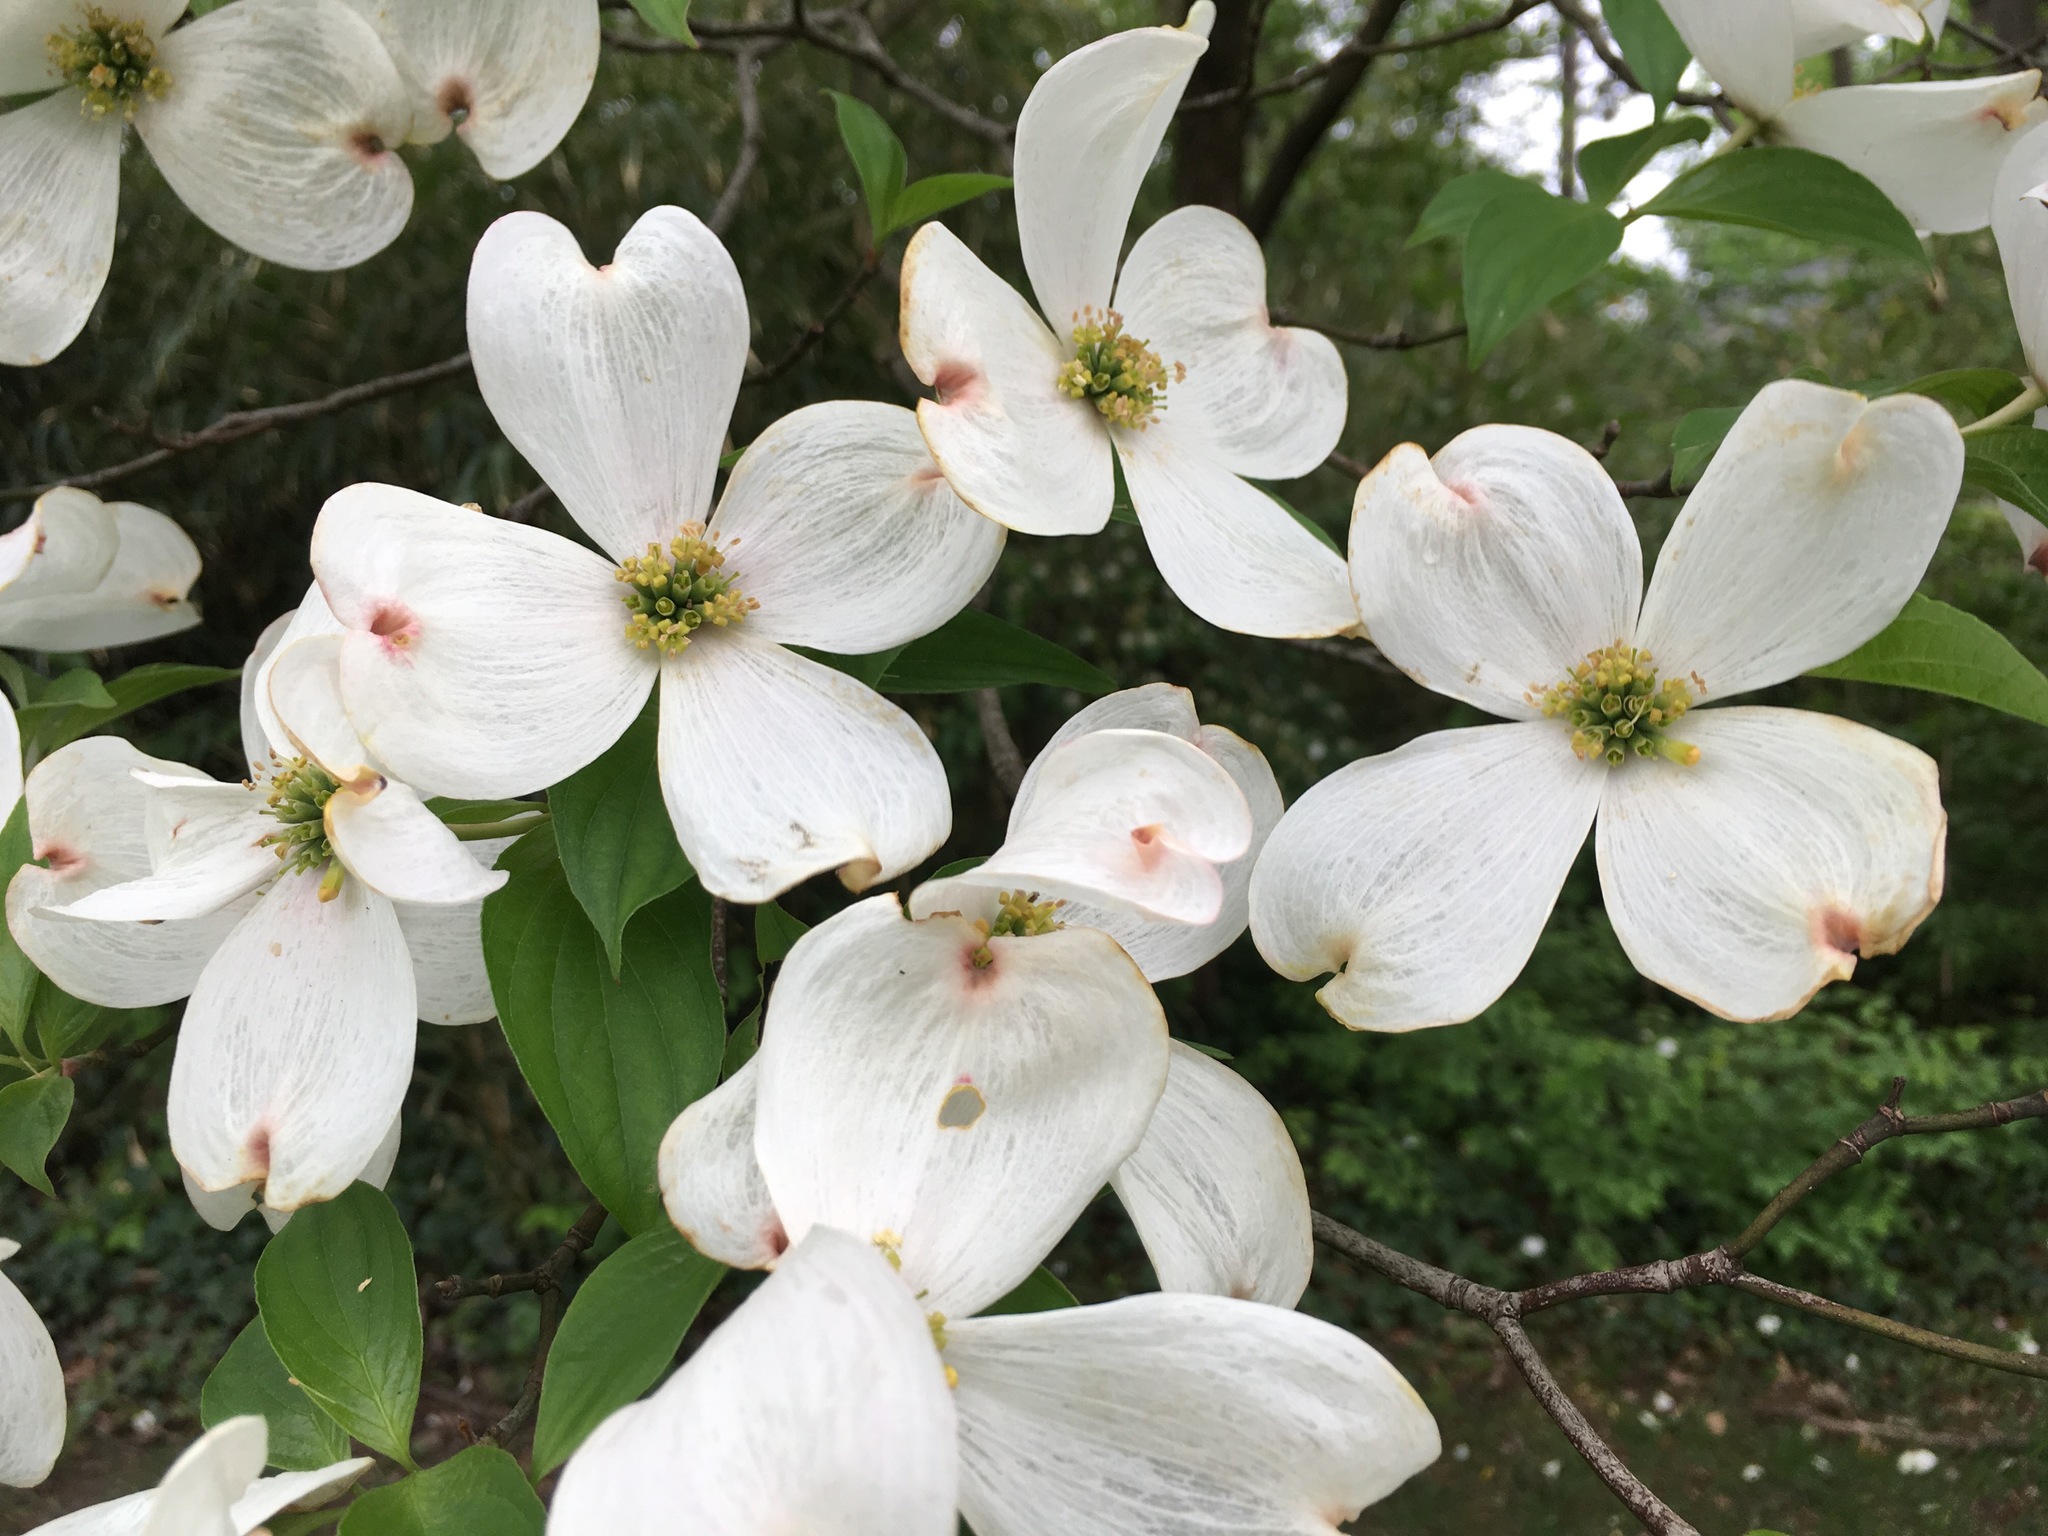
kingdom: Plantae
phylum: Tracheophyta
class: Magnoliopsida
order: Cornales
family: Cornaceae
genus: Cornus
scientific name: Cornus florida
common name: Flowering dogwood
